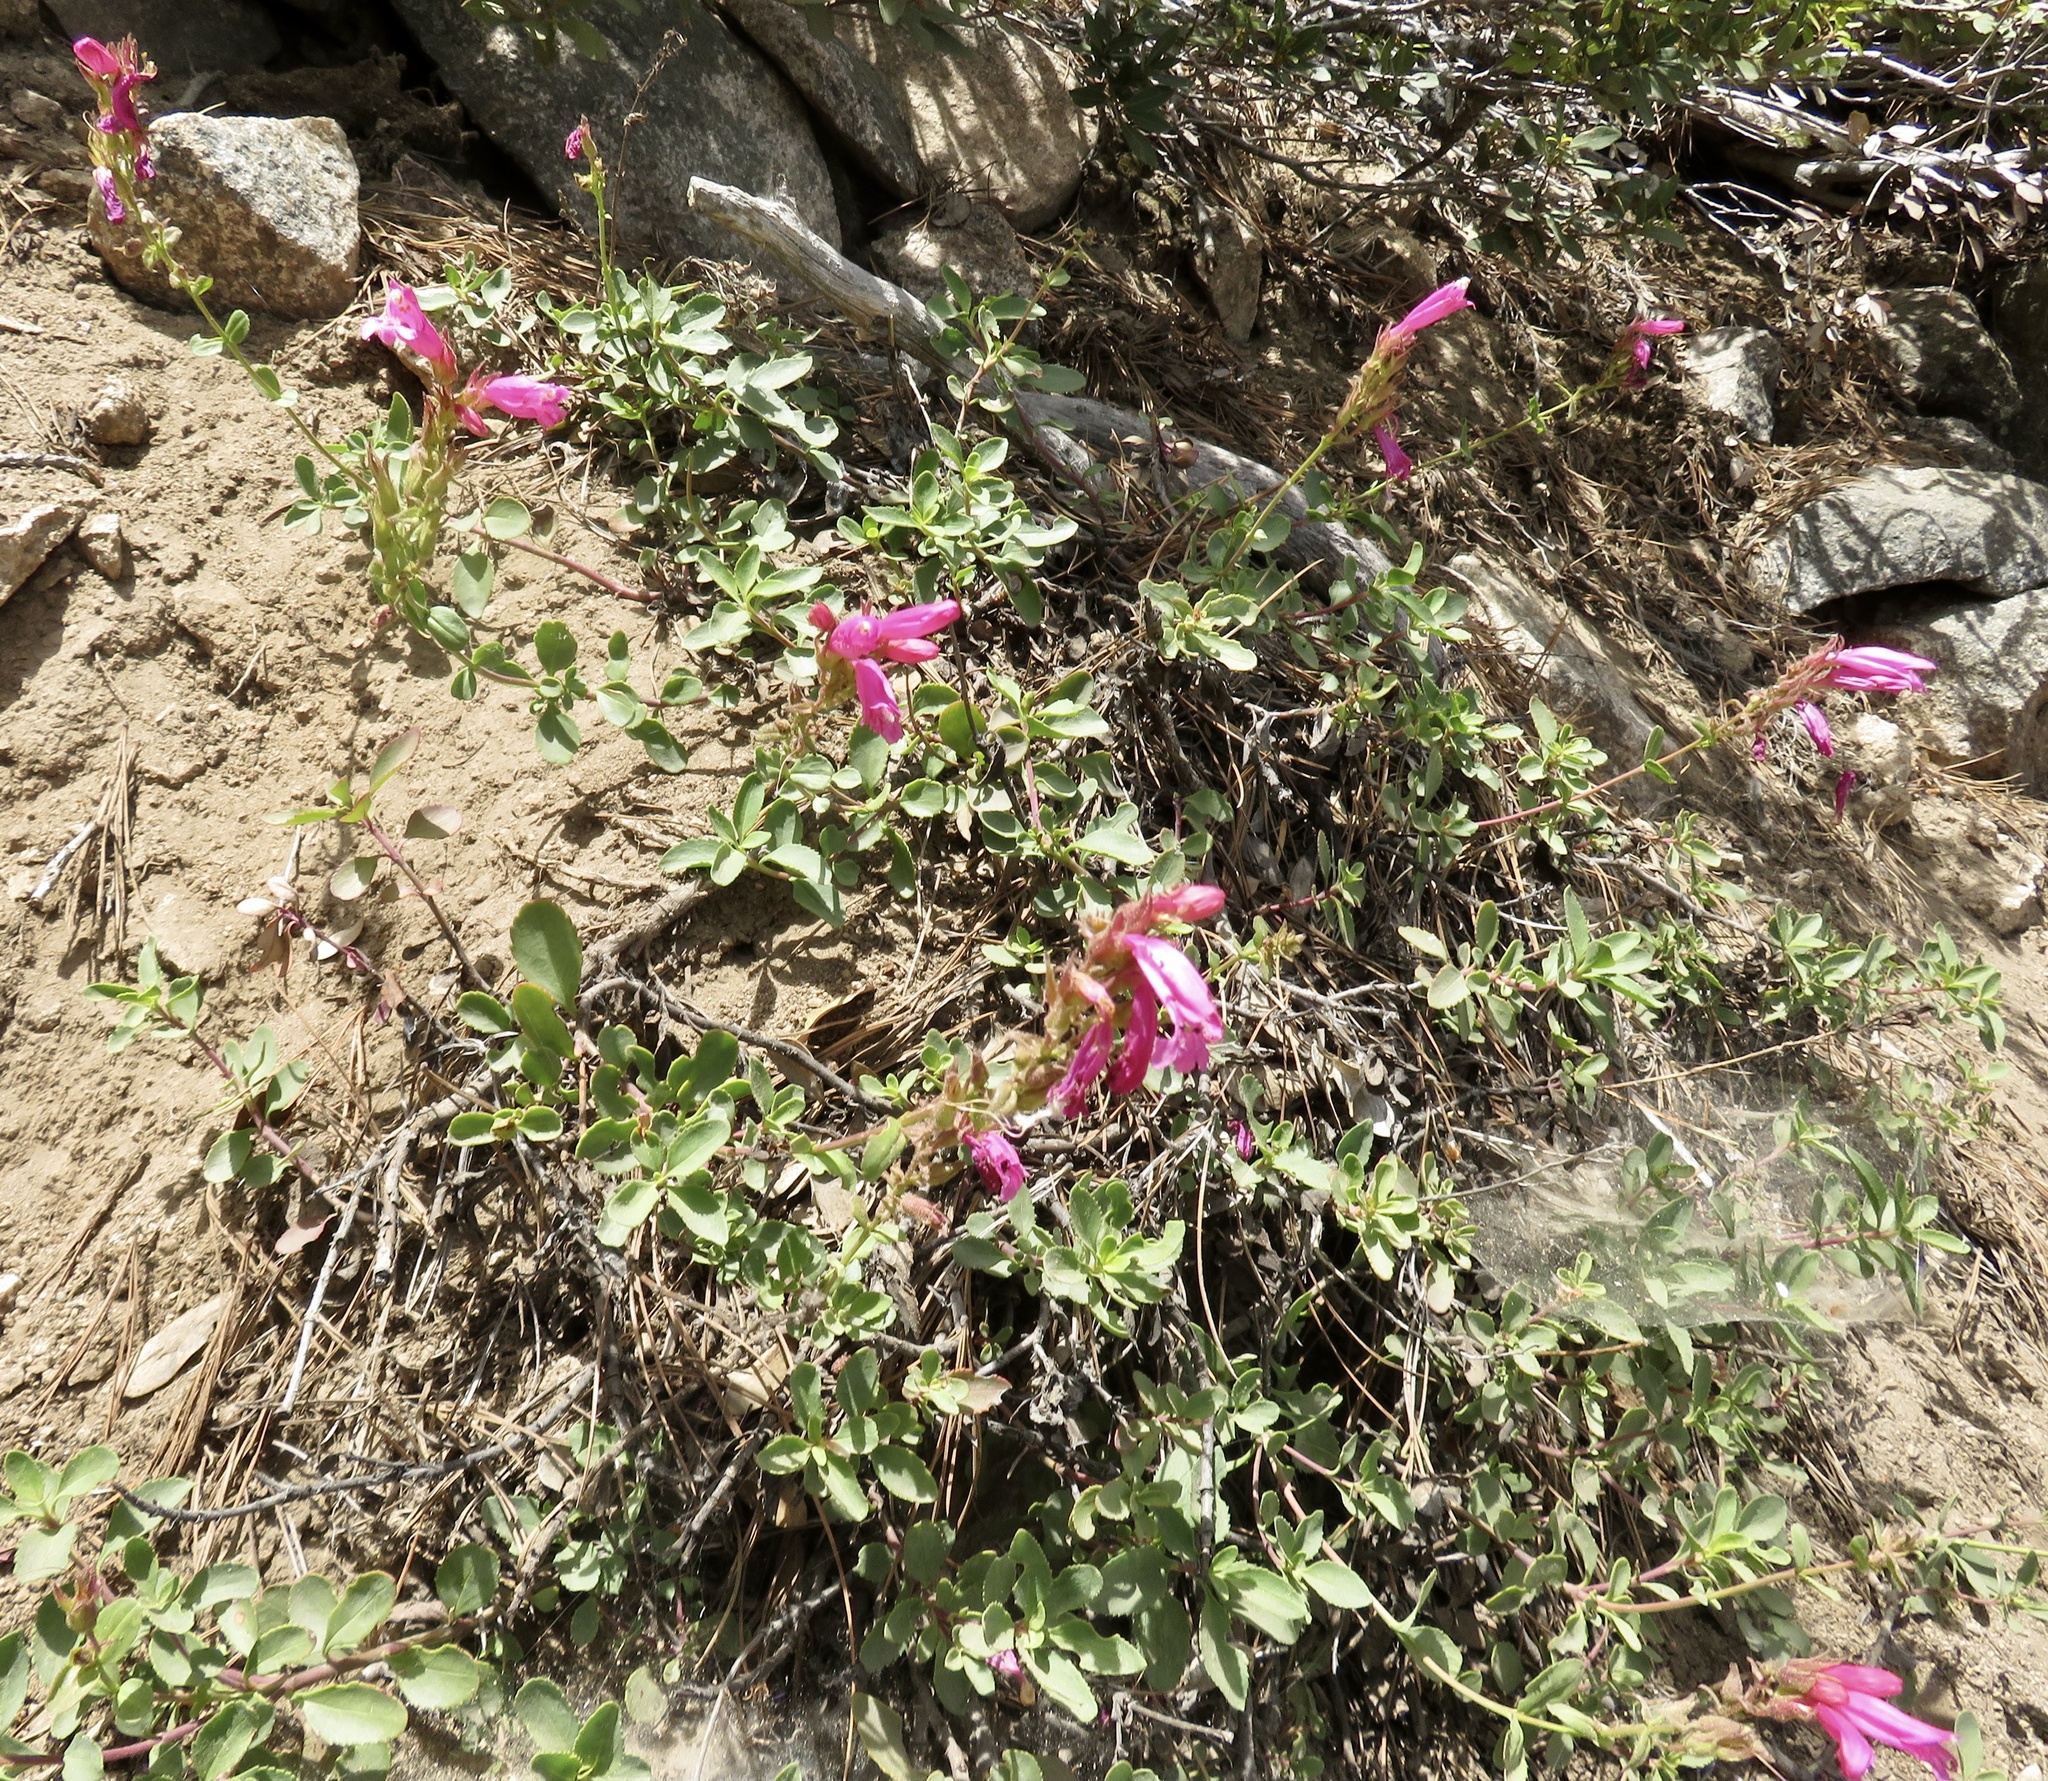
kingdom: Plantae
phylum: Tracheophyta
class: Magnoliopsida
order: Lamiales
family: Plantaginaceae
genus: Penstemon
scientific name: Penstemon newberryi
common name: Mountain-pride
